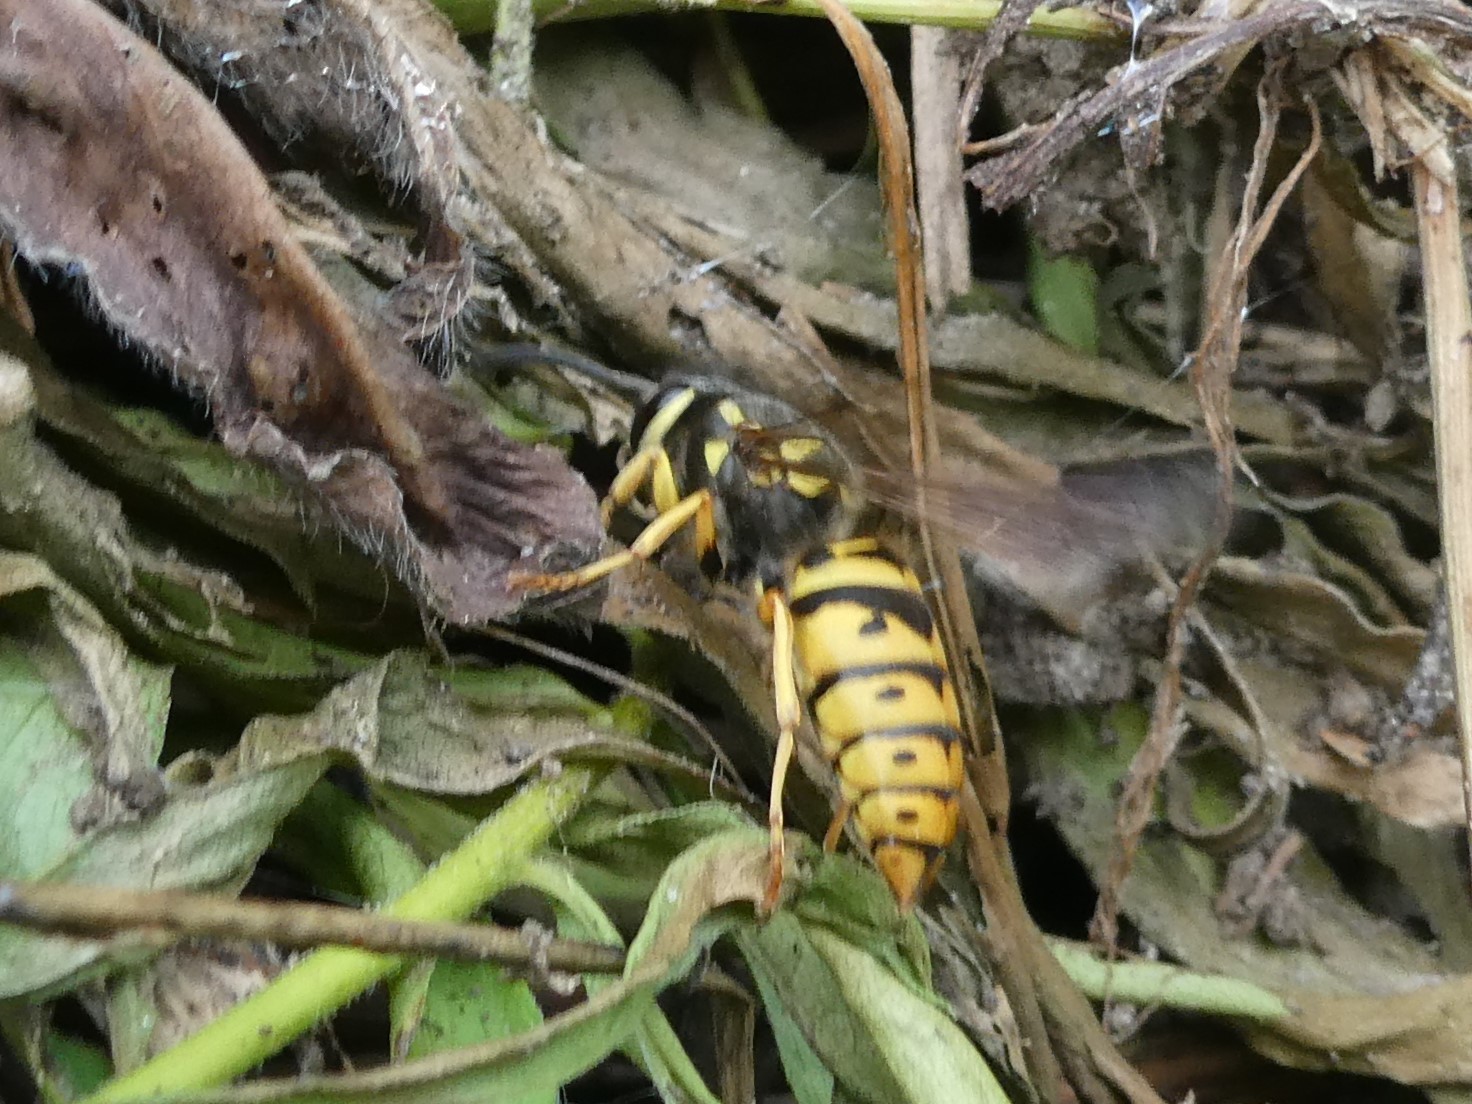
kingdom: Animalia
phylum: Arthropoda
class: Insecta
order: Hymenoptera
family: Vespidae
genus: Vespula
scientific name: Vespula maculifrons
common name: Eastern yellowjacket
